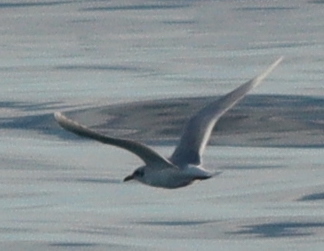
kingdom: Animalia
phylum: Chordata
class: Aves
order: Charadriiformes
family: Laridae
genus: Ichthyaetus
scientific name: Ichthyaetus melanocephalus
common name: Mediterranean gull
